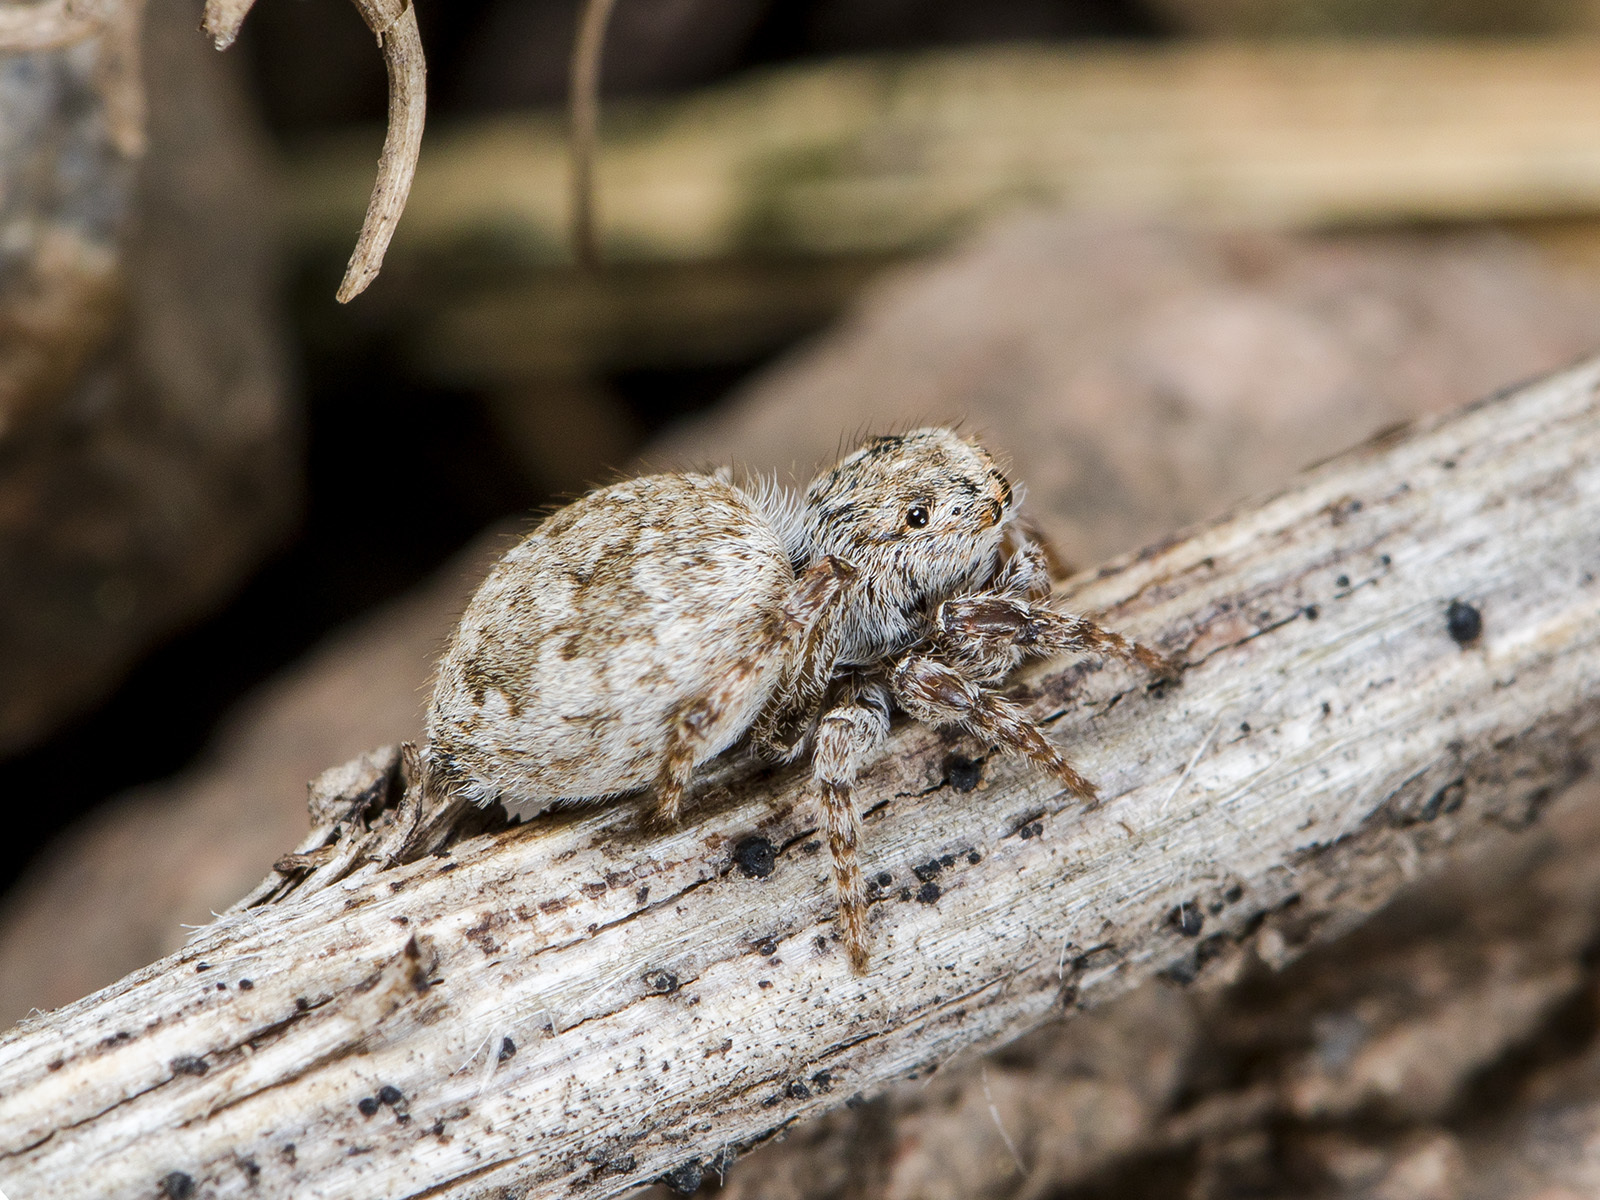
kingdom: Animalia
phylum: Arthropoda
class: Arachnida
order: Araneae
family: Salticidae
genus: Attulus
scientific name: Attulus avocator
